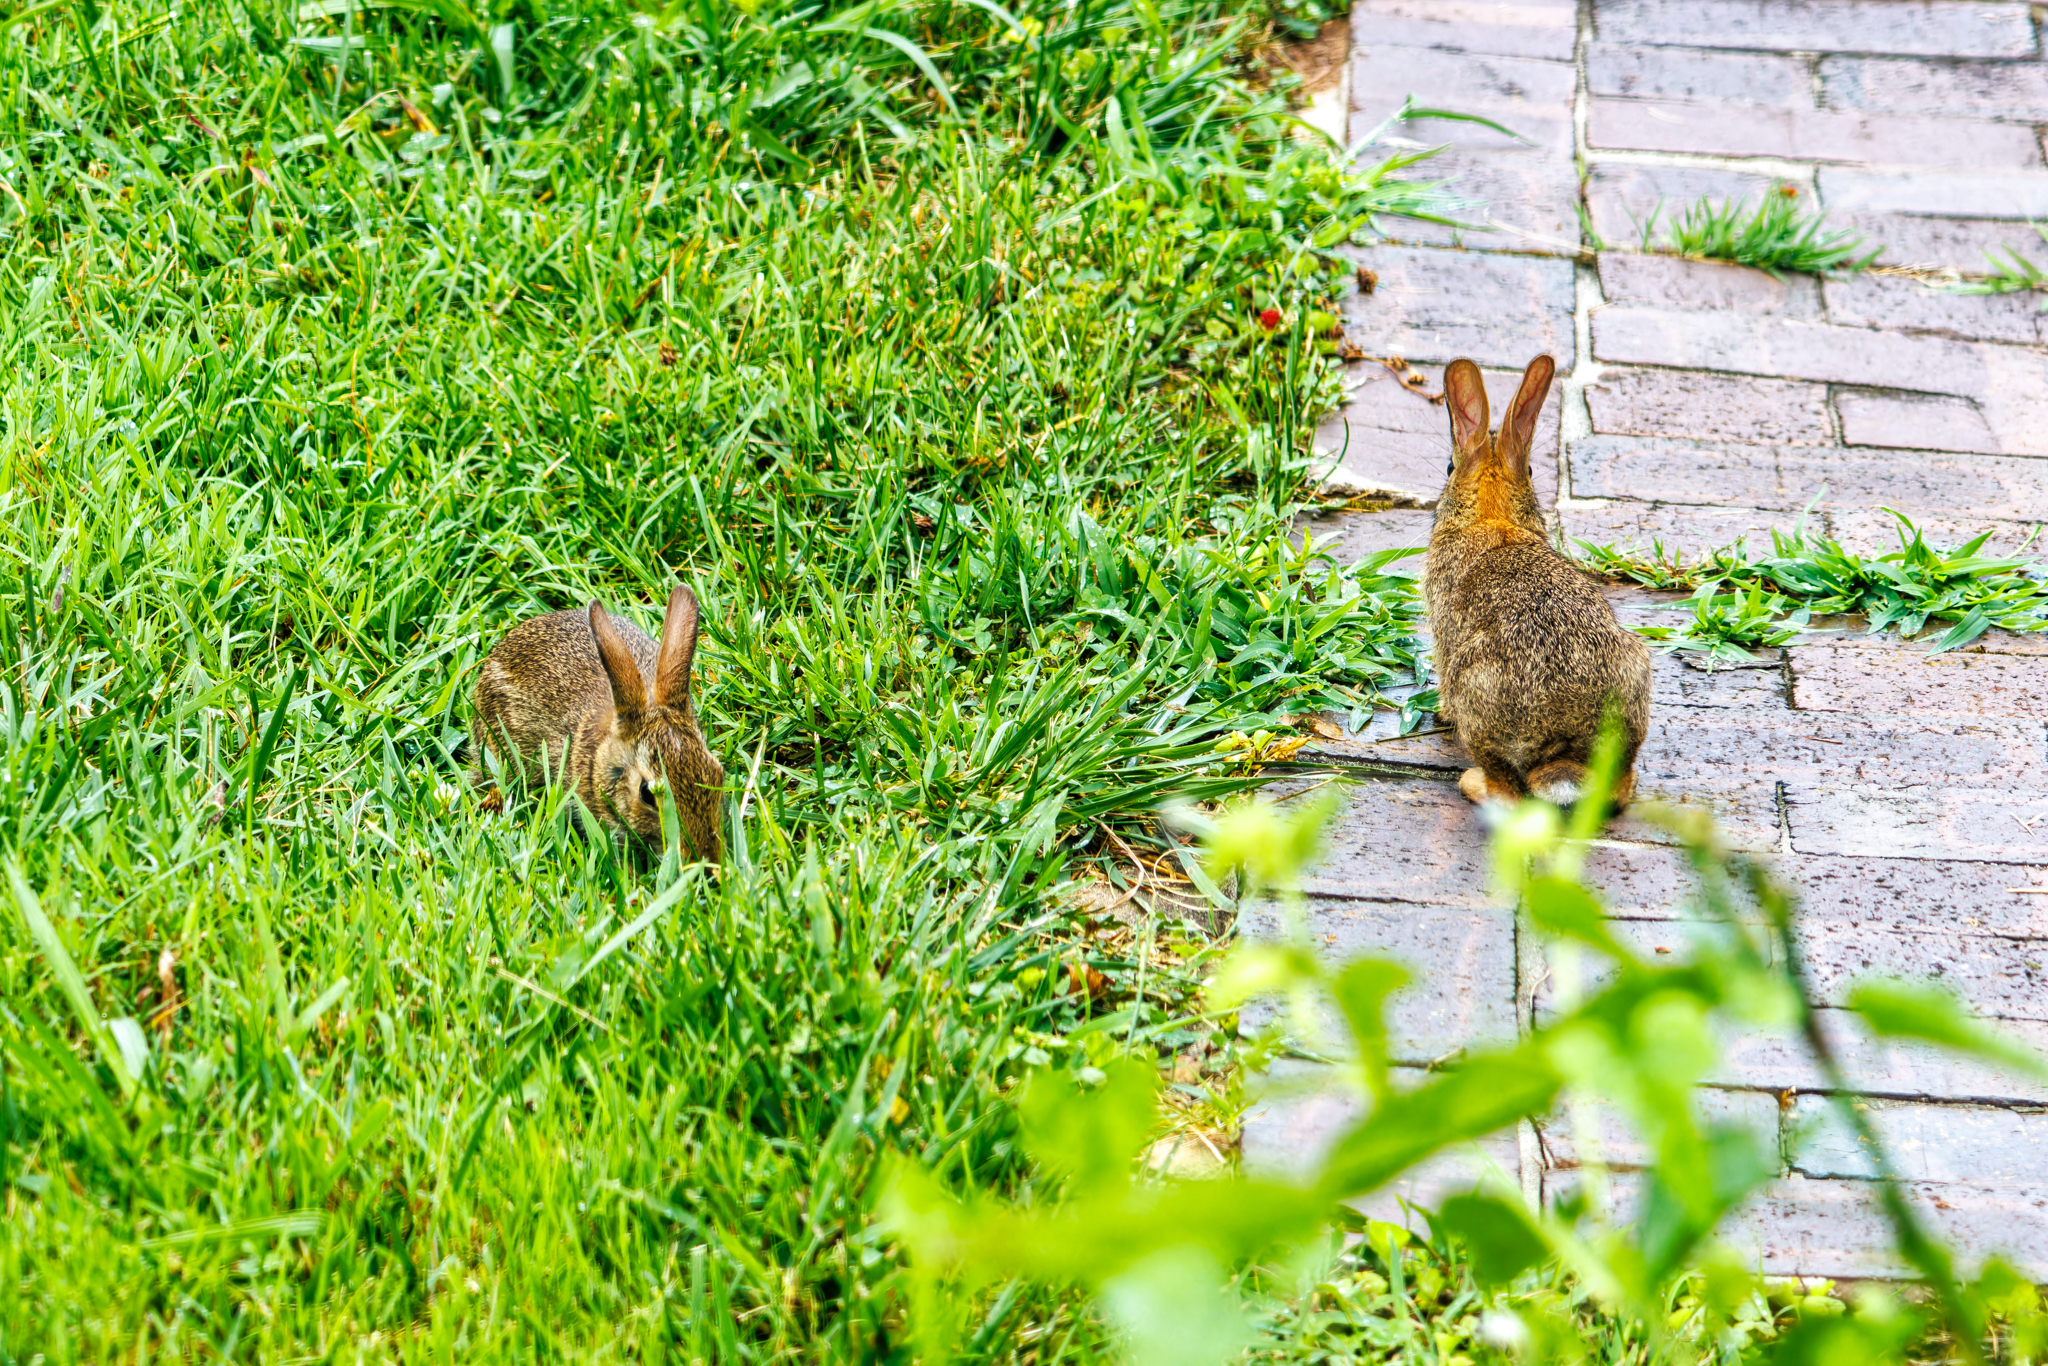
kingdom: Animalia
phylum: Chordata
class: Mammalia
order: Lagomorpha
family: Leporidae
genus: Sylvilagus
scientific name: Sylvilagus floridanus
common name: Eastern cottontail
